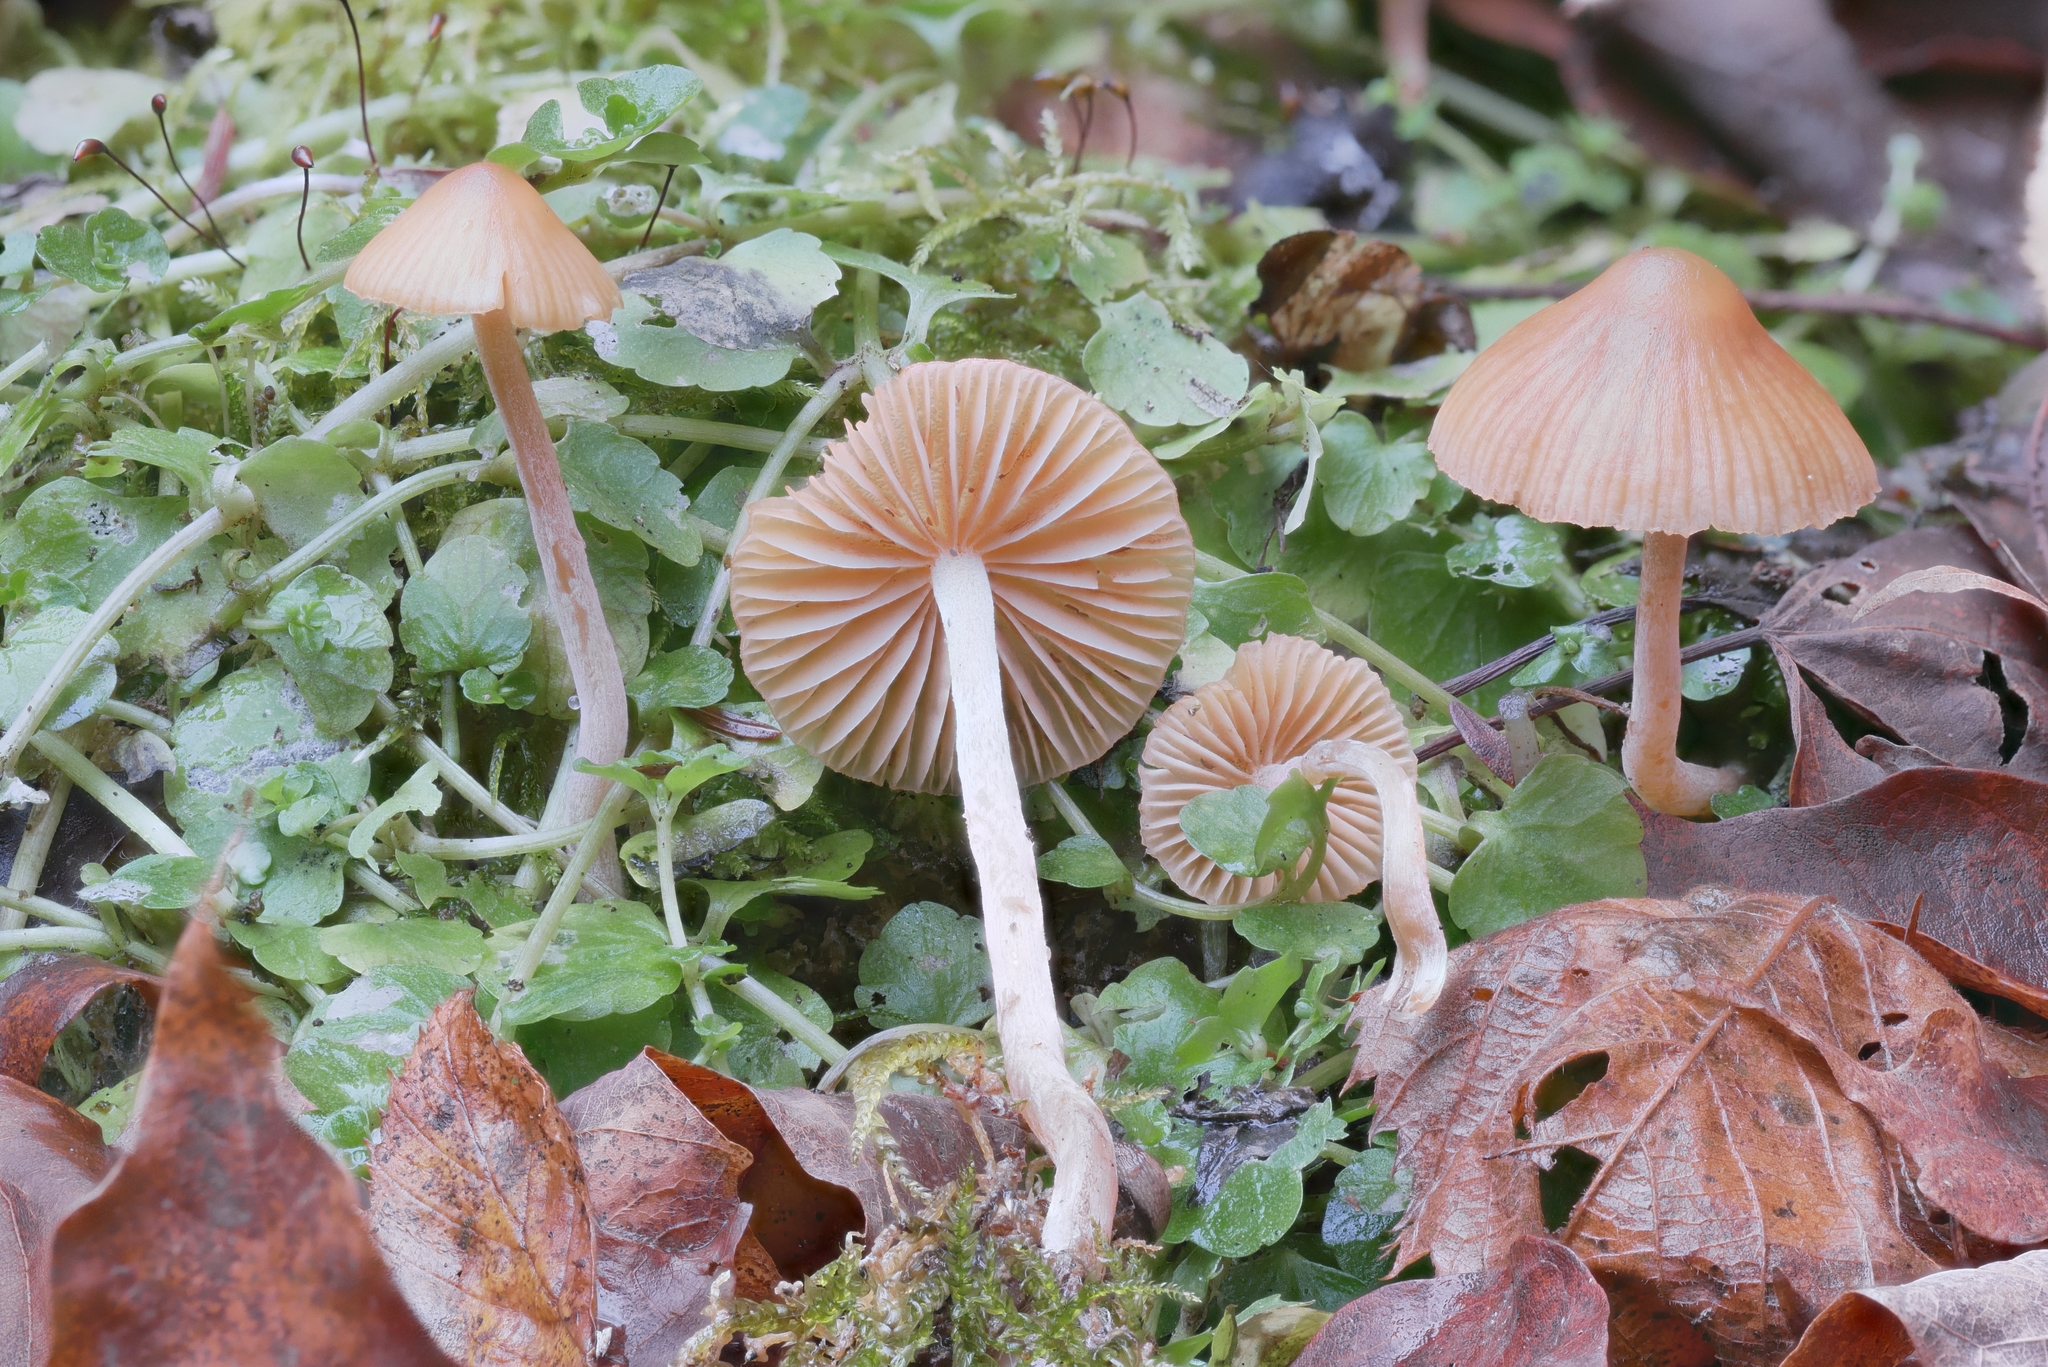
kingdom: Fungi
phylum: Basidiomycota
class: Agaricomycetes
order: Agaricales
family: Hymenogastraceae
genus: Galerina
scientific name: Galerina clavata
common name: Ribbed bell
